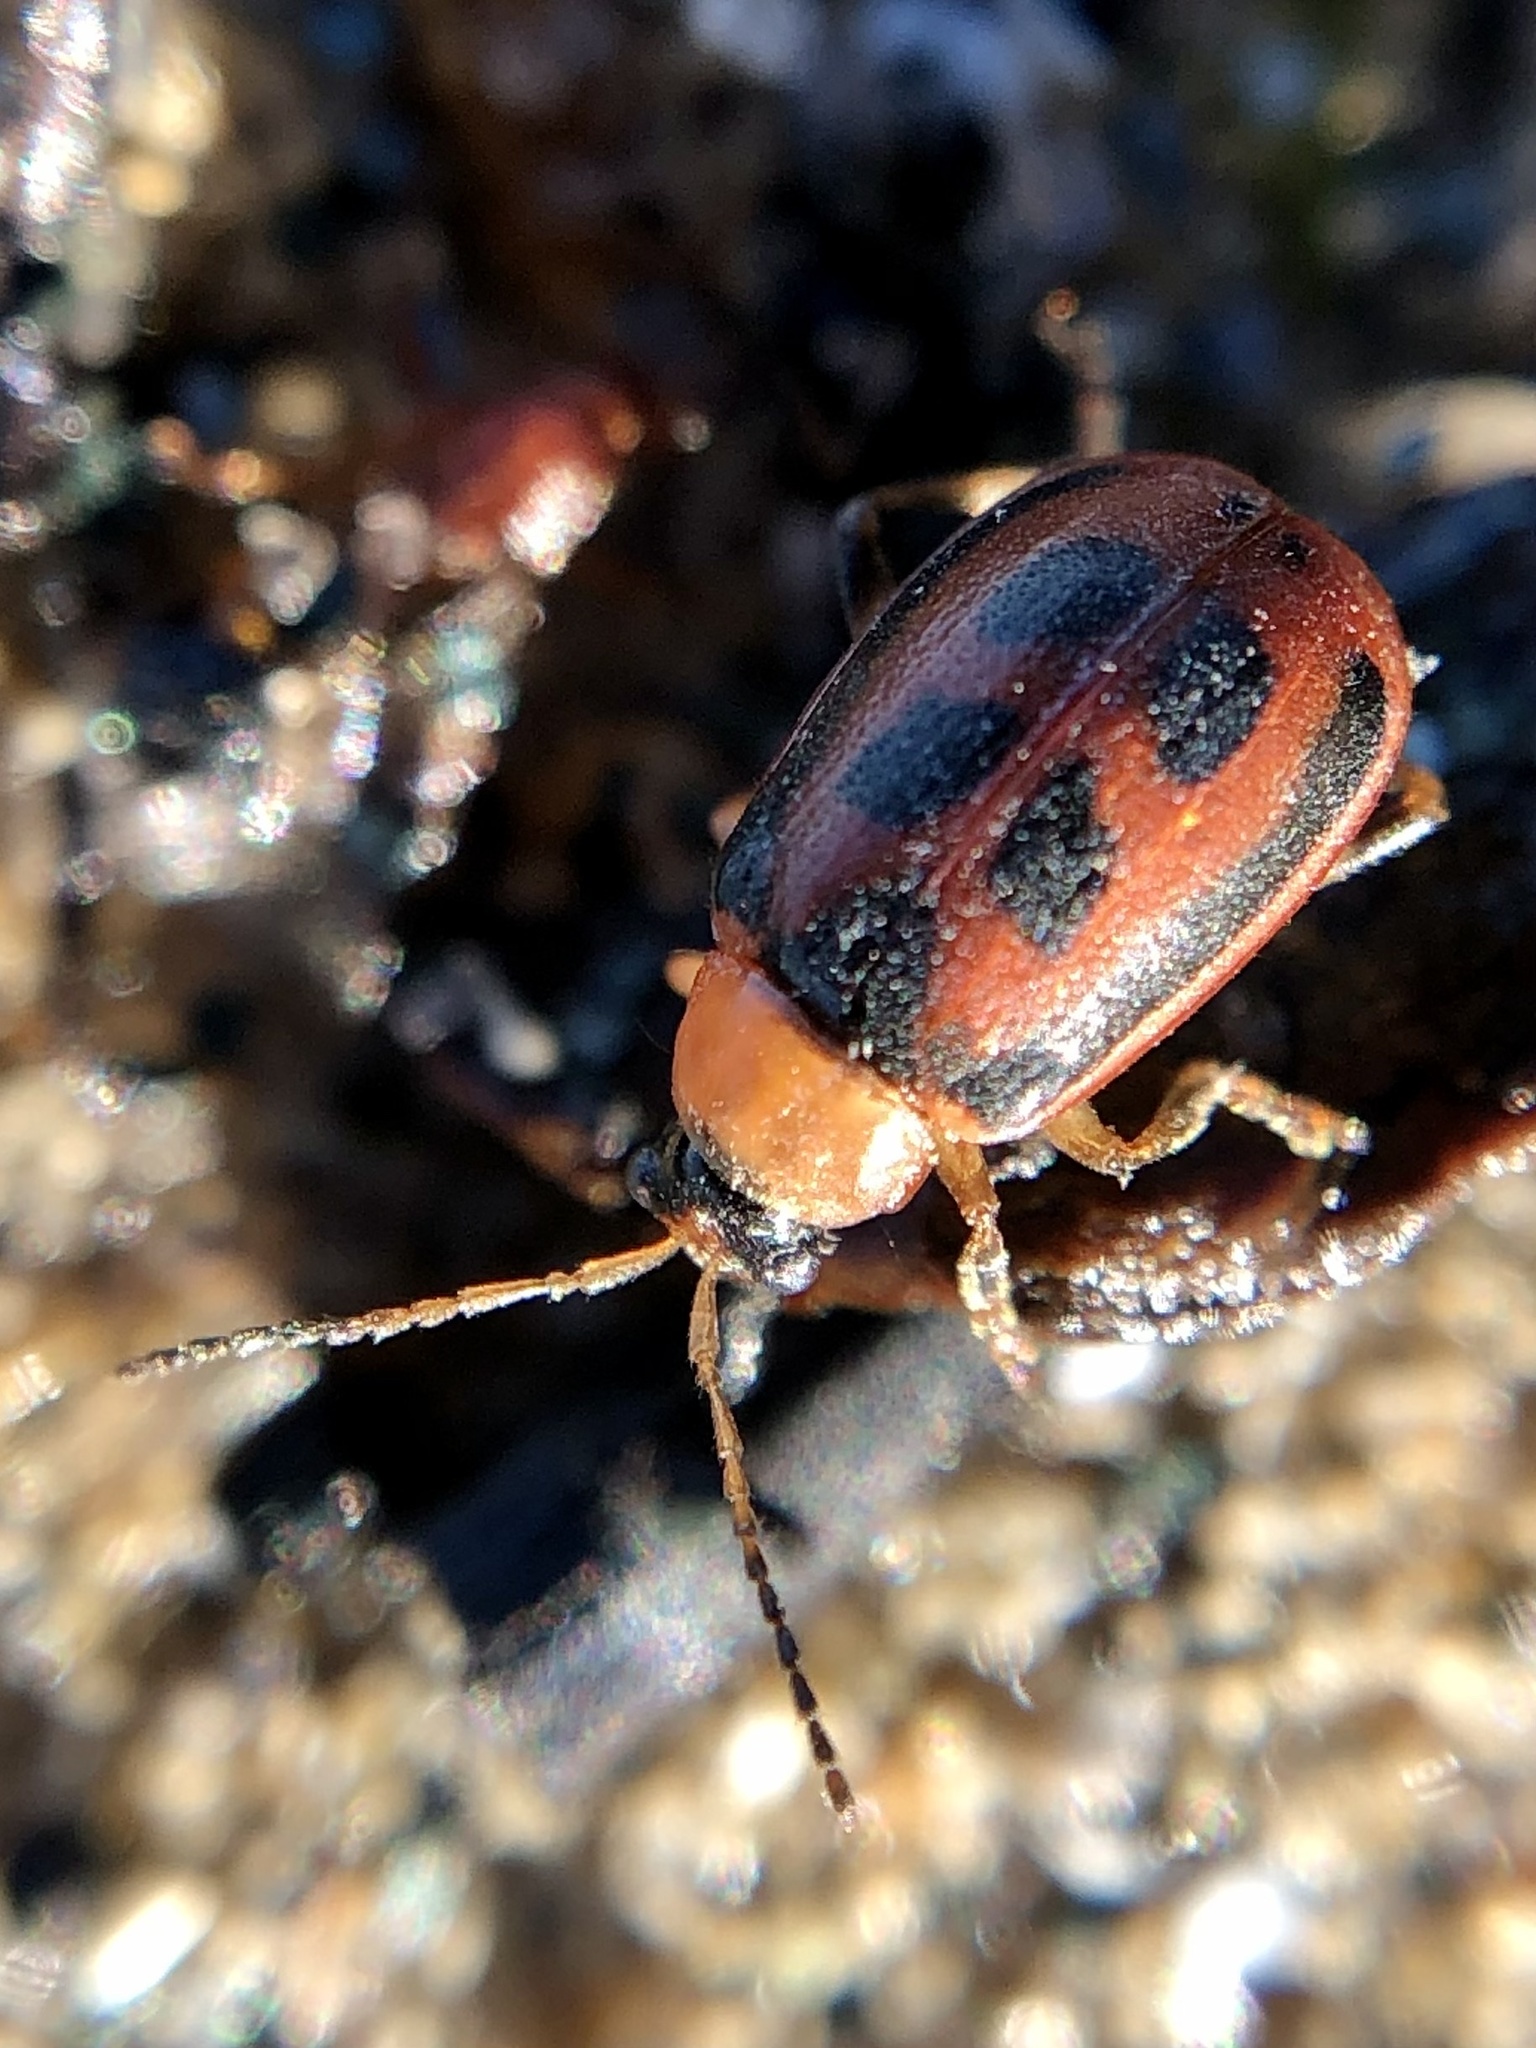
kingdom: Animalia
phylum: Arthropoda
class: Insecta
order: Coleoptera
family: Chrysomelidae
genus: Cerotoma
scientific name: Cerotoma trifurcata
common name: Bean leaf beetle
